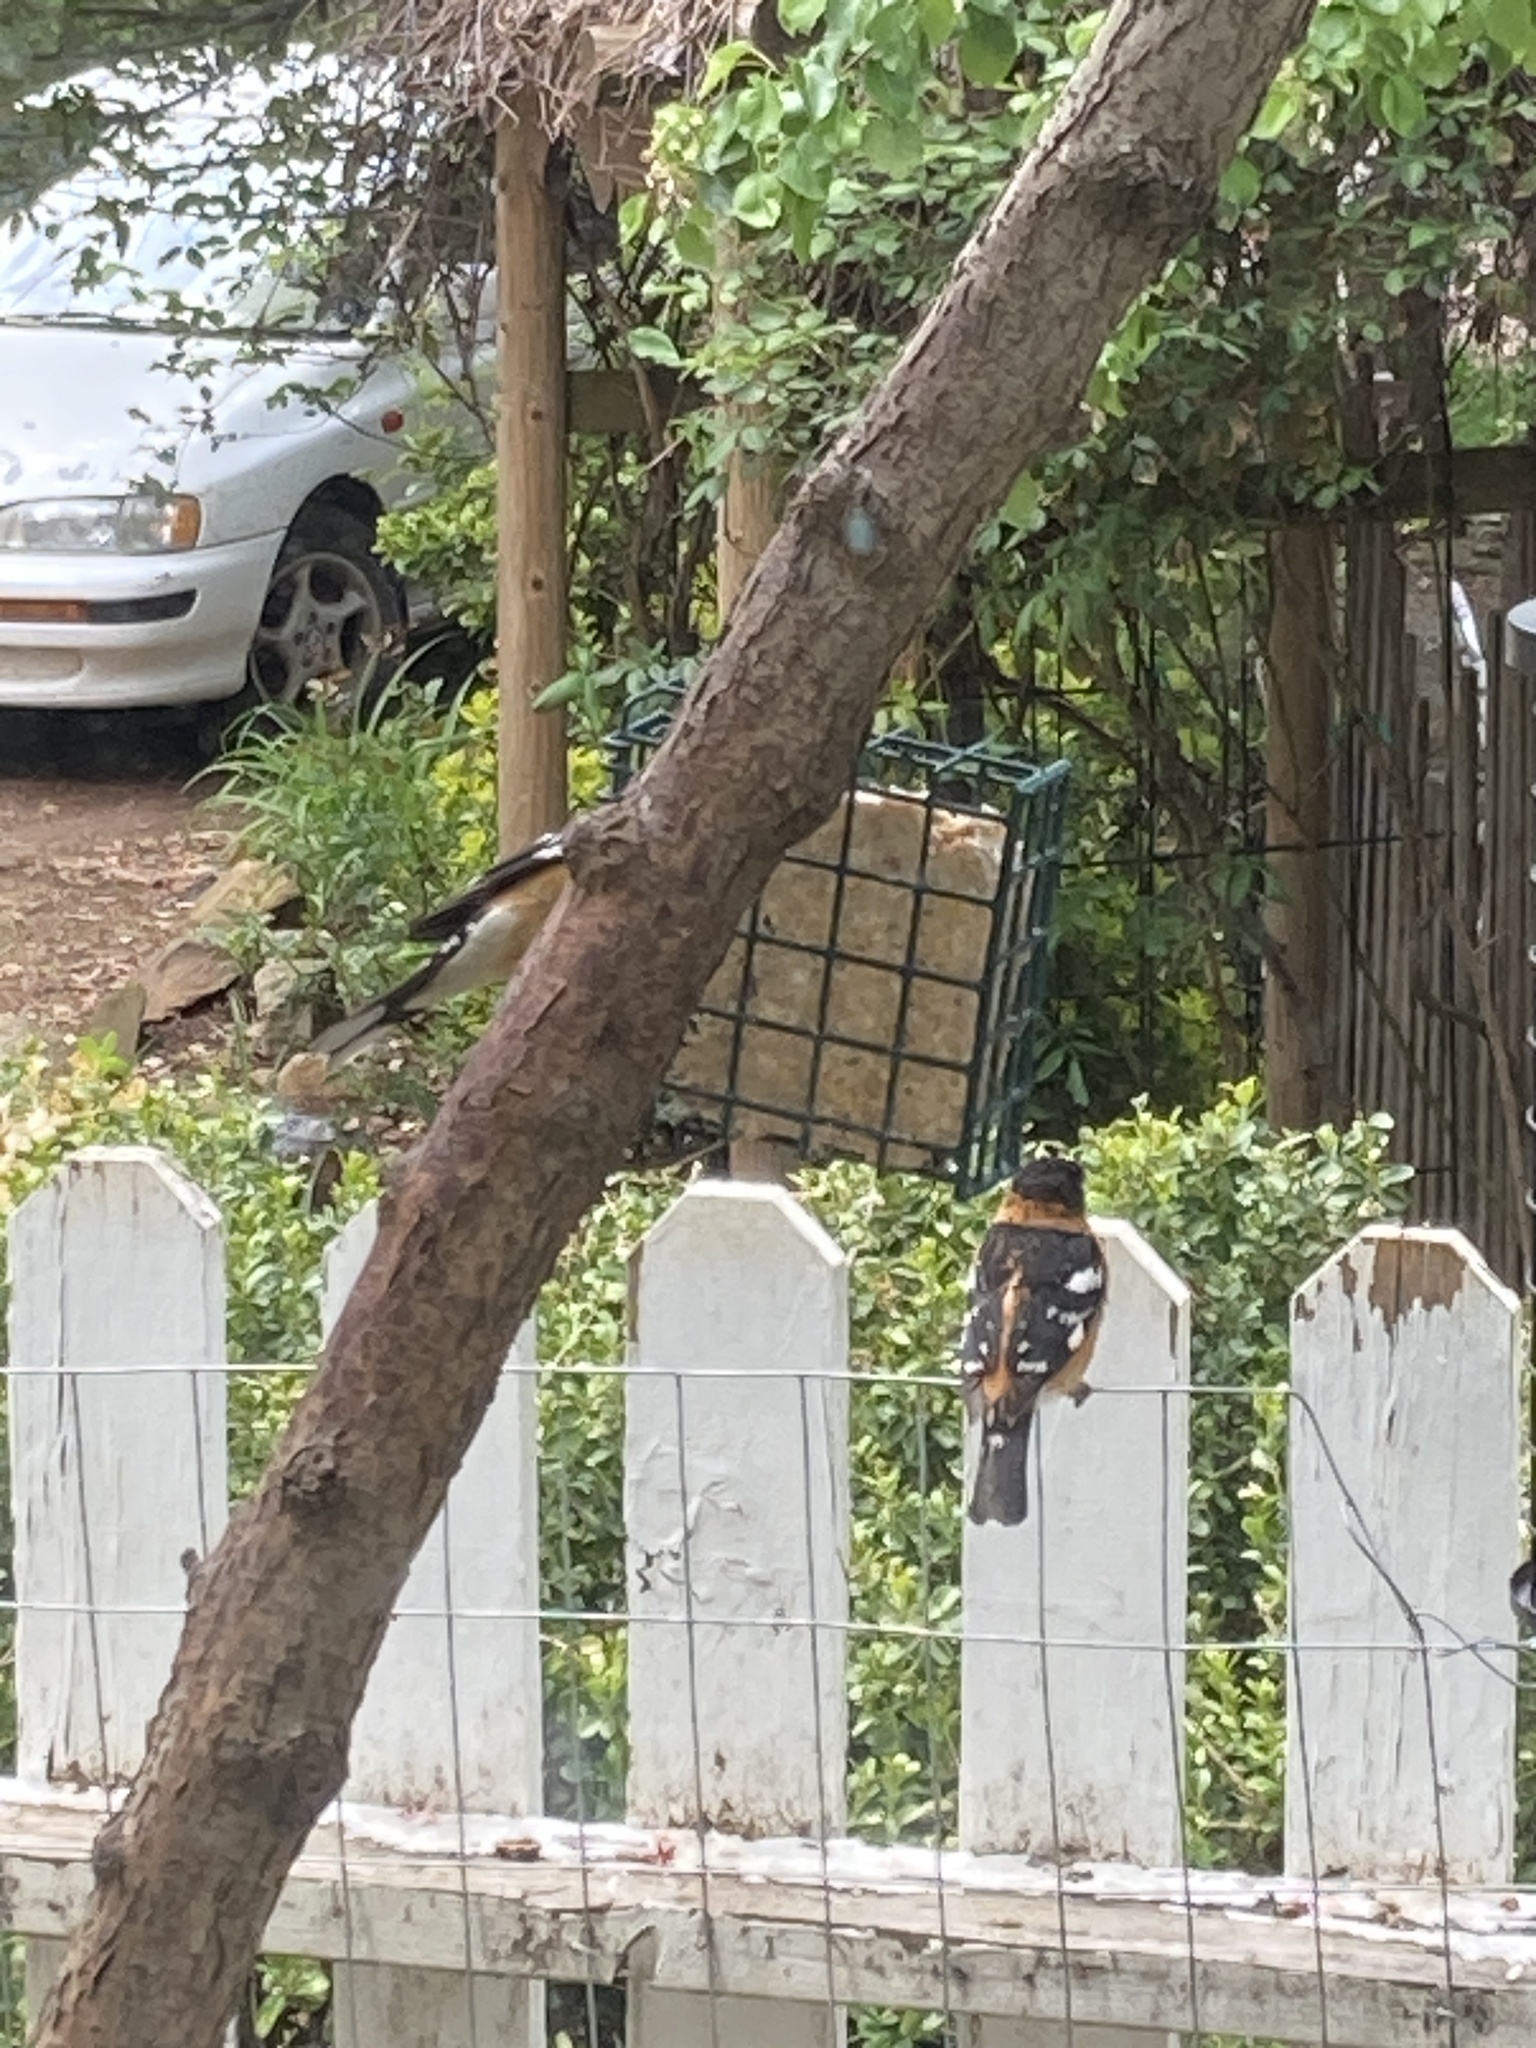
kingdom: Animalia
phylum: Chordata
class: Aves
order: Passeriformes
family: Cardinalidae
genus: Pheucticus
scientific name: Pheucticus melanocephalus
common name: Black-headed grosbeak
